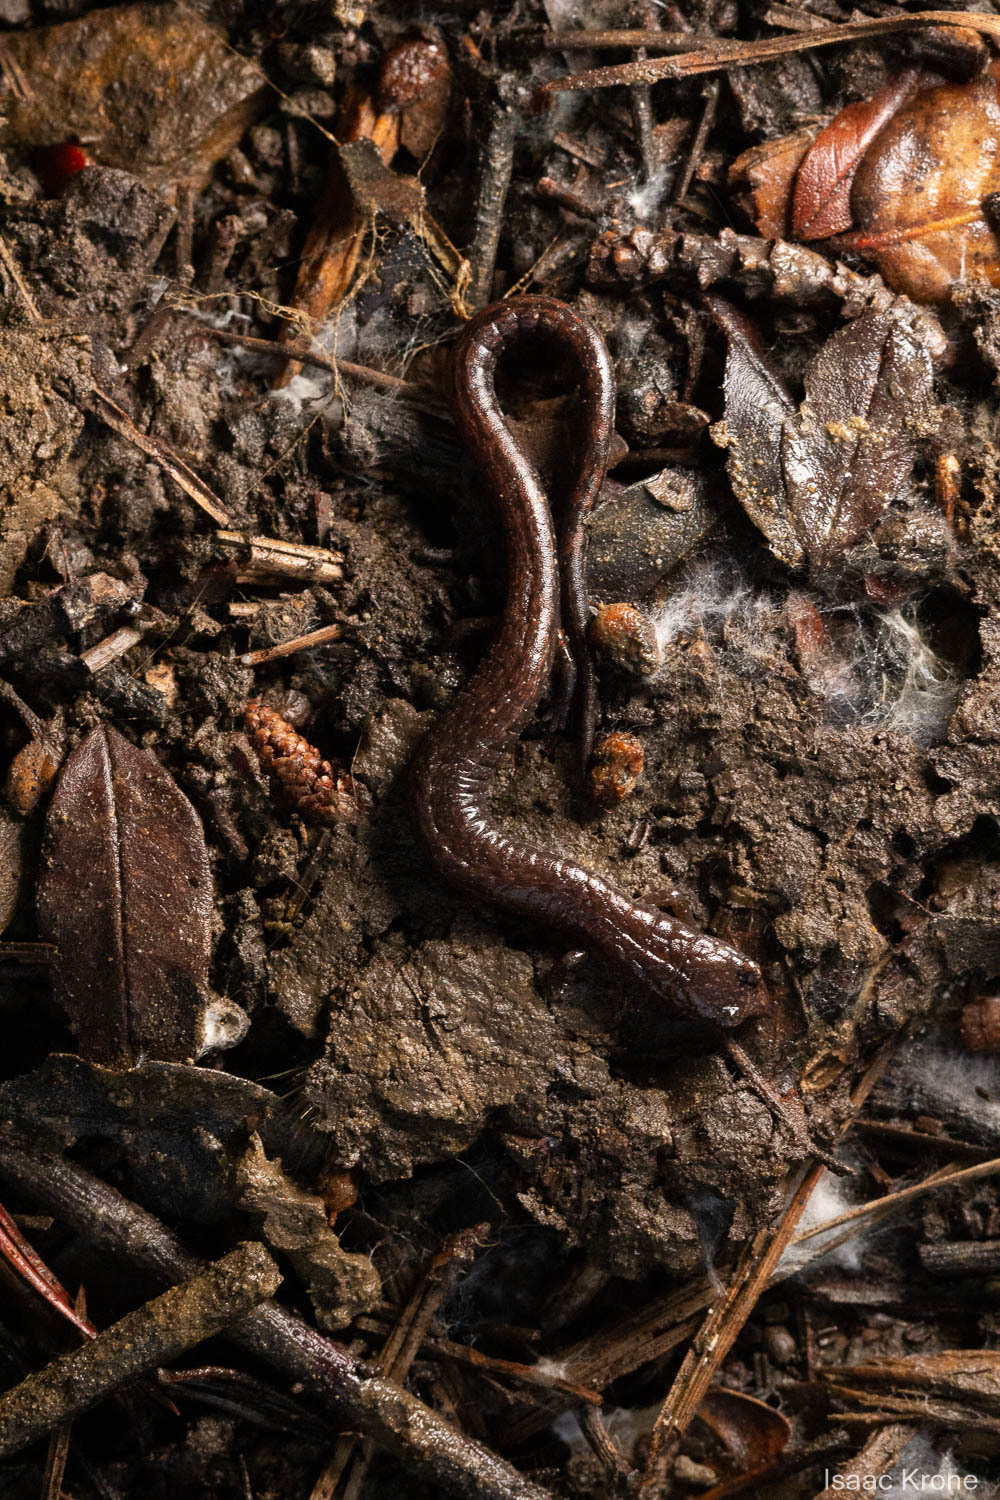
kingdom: Animalia
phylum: Chordata
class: Amphibia
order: Caudata
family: Plethodontidae
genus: Batrachoseps
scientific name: Batrachoseps attenuatus
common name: California slender salamander
